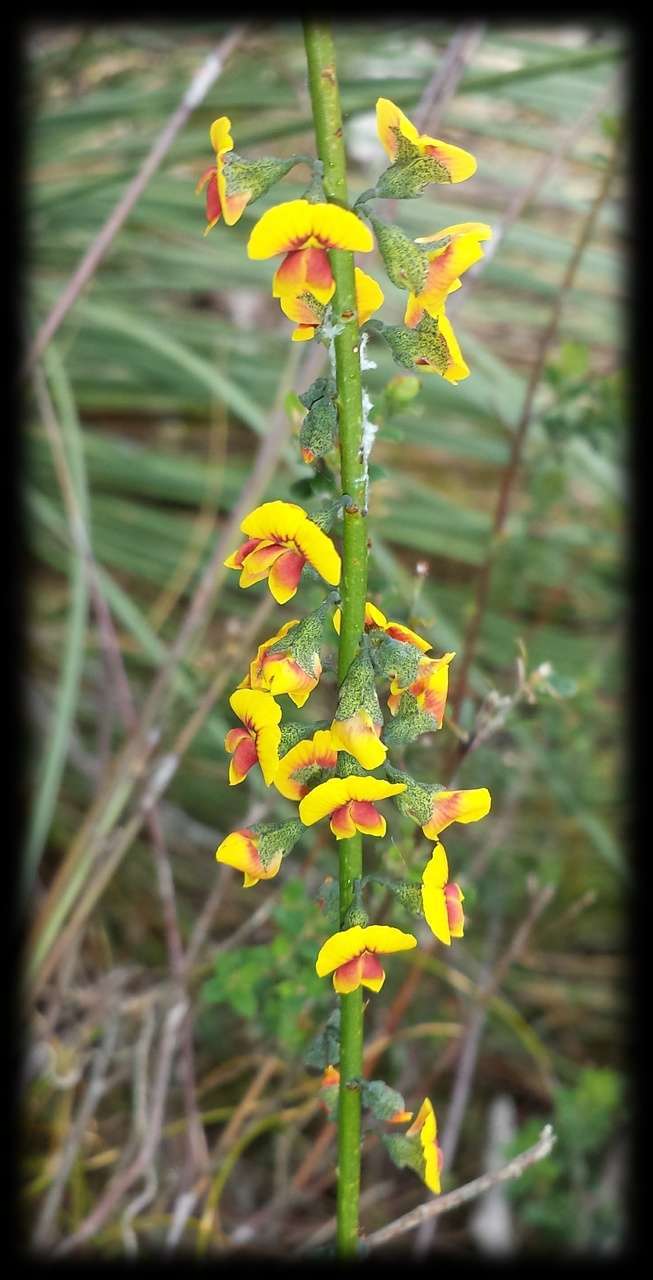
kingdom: Plantae
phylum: Tracheophyta
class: Magnoliopsida
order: Fabales
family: Fabaceae
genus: Sphaerolobium
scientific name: Sphaerolobium vimineum
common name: Leafless globe-pea
